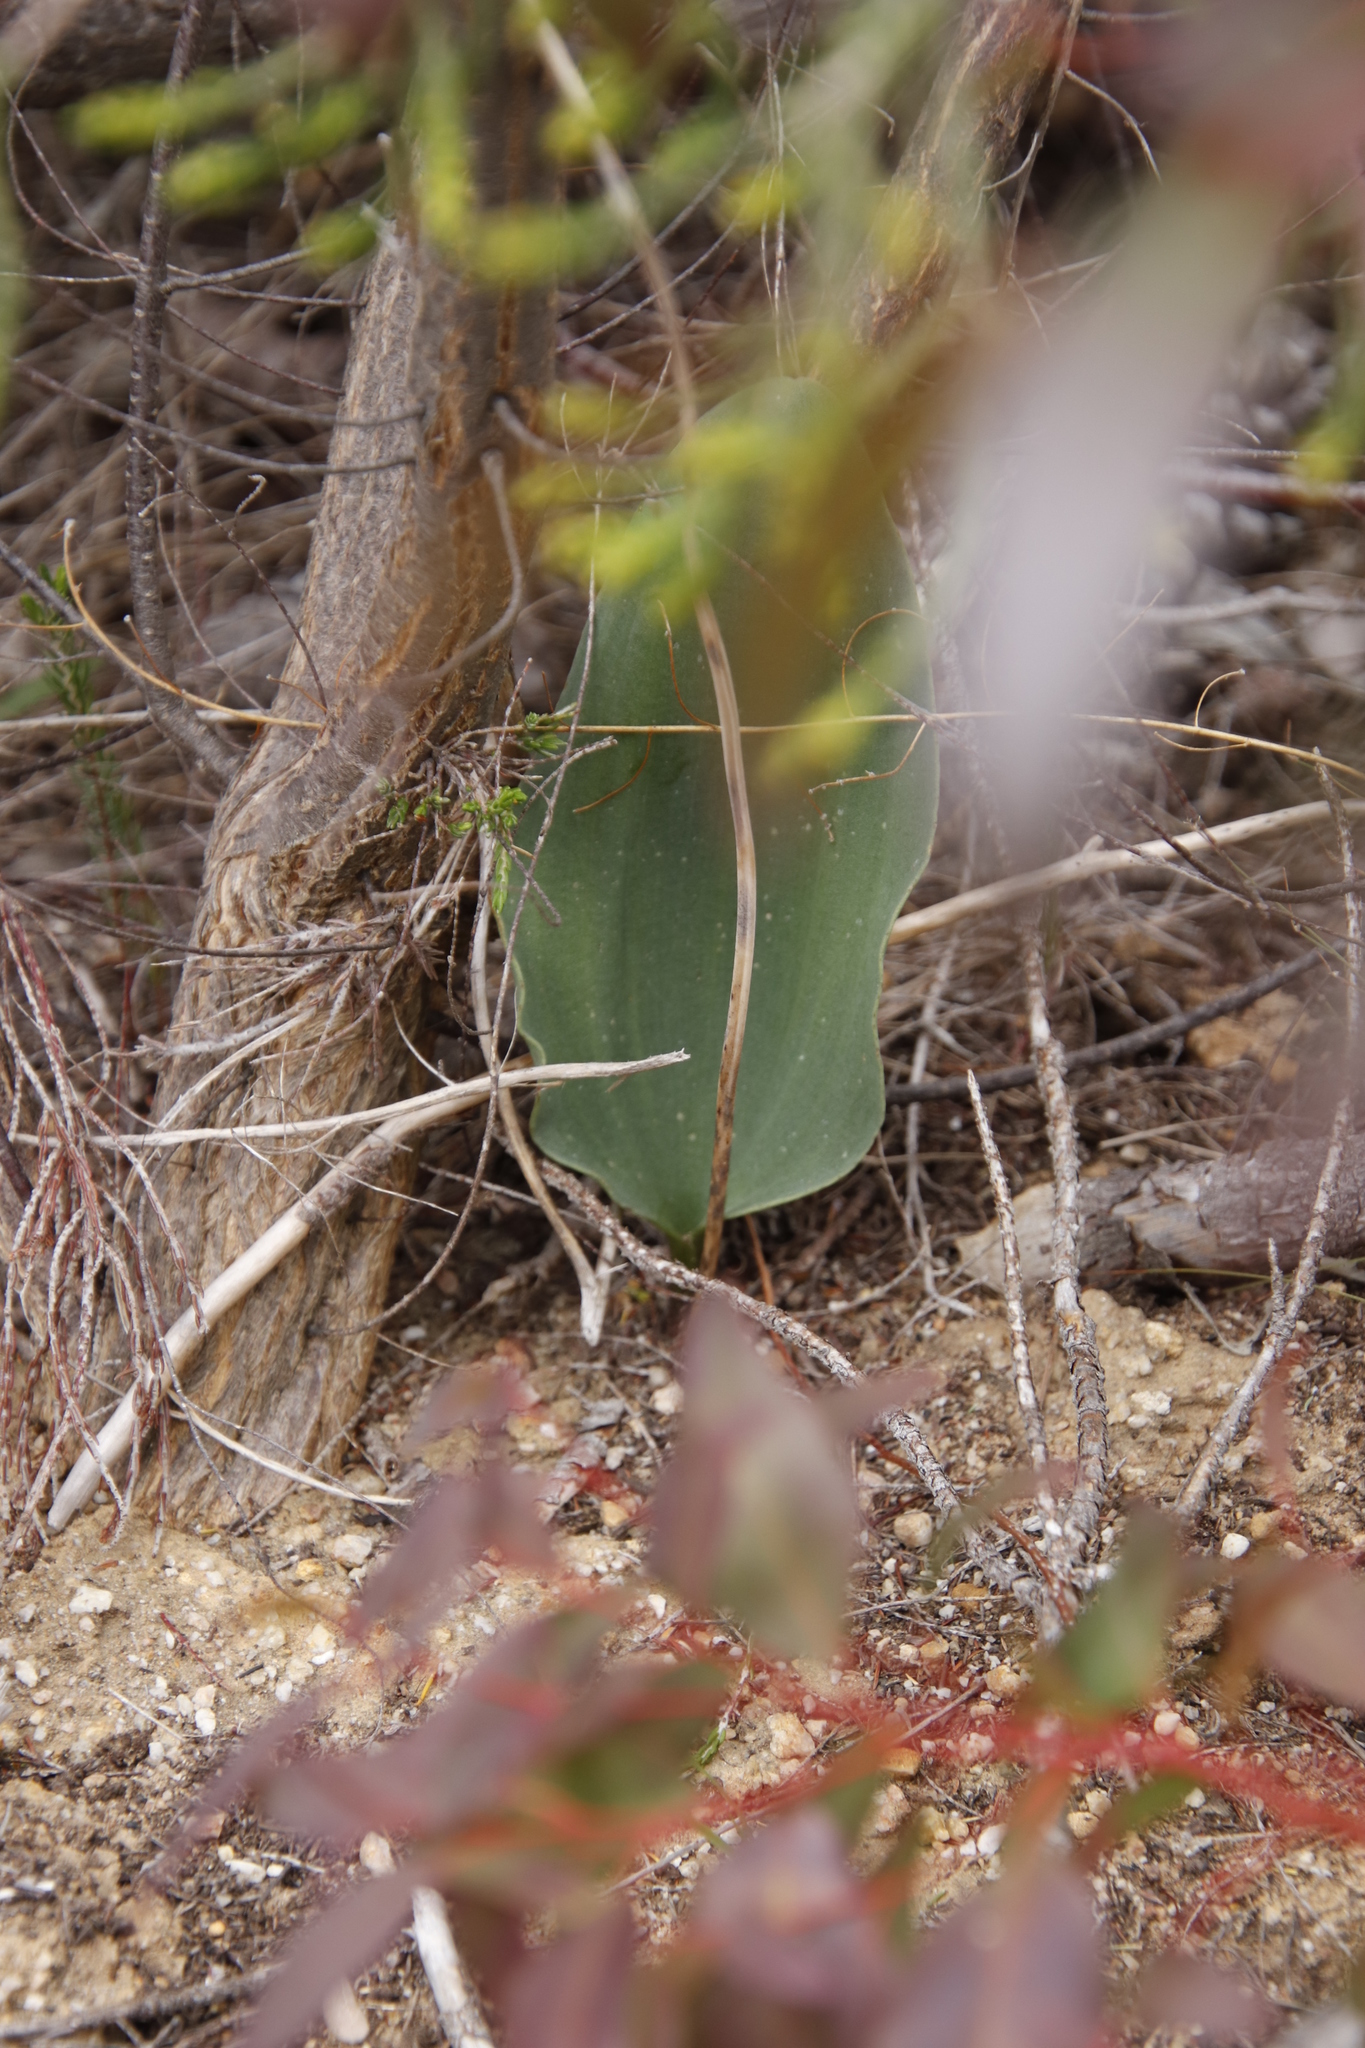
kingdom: Plantae
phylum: Tracheophyta
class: Liliopsida
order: Asparagales
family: Asparagaceae
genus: Eriospermum
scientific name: Eriospermum lanceifolium
